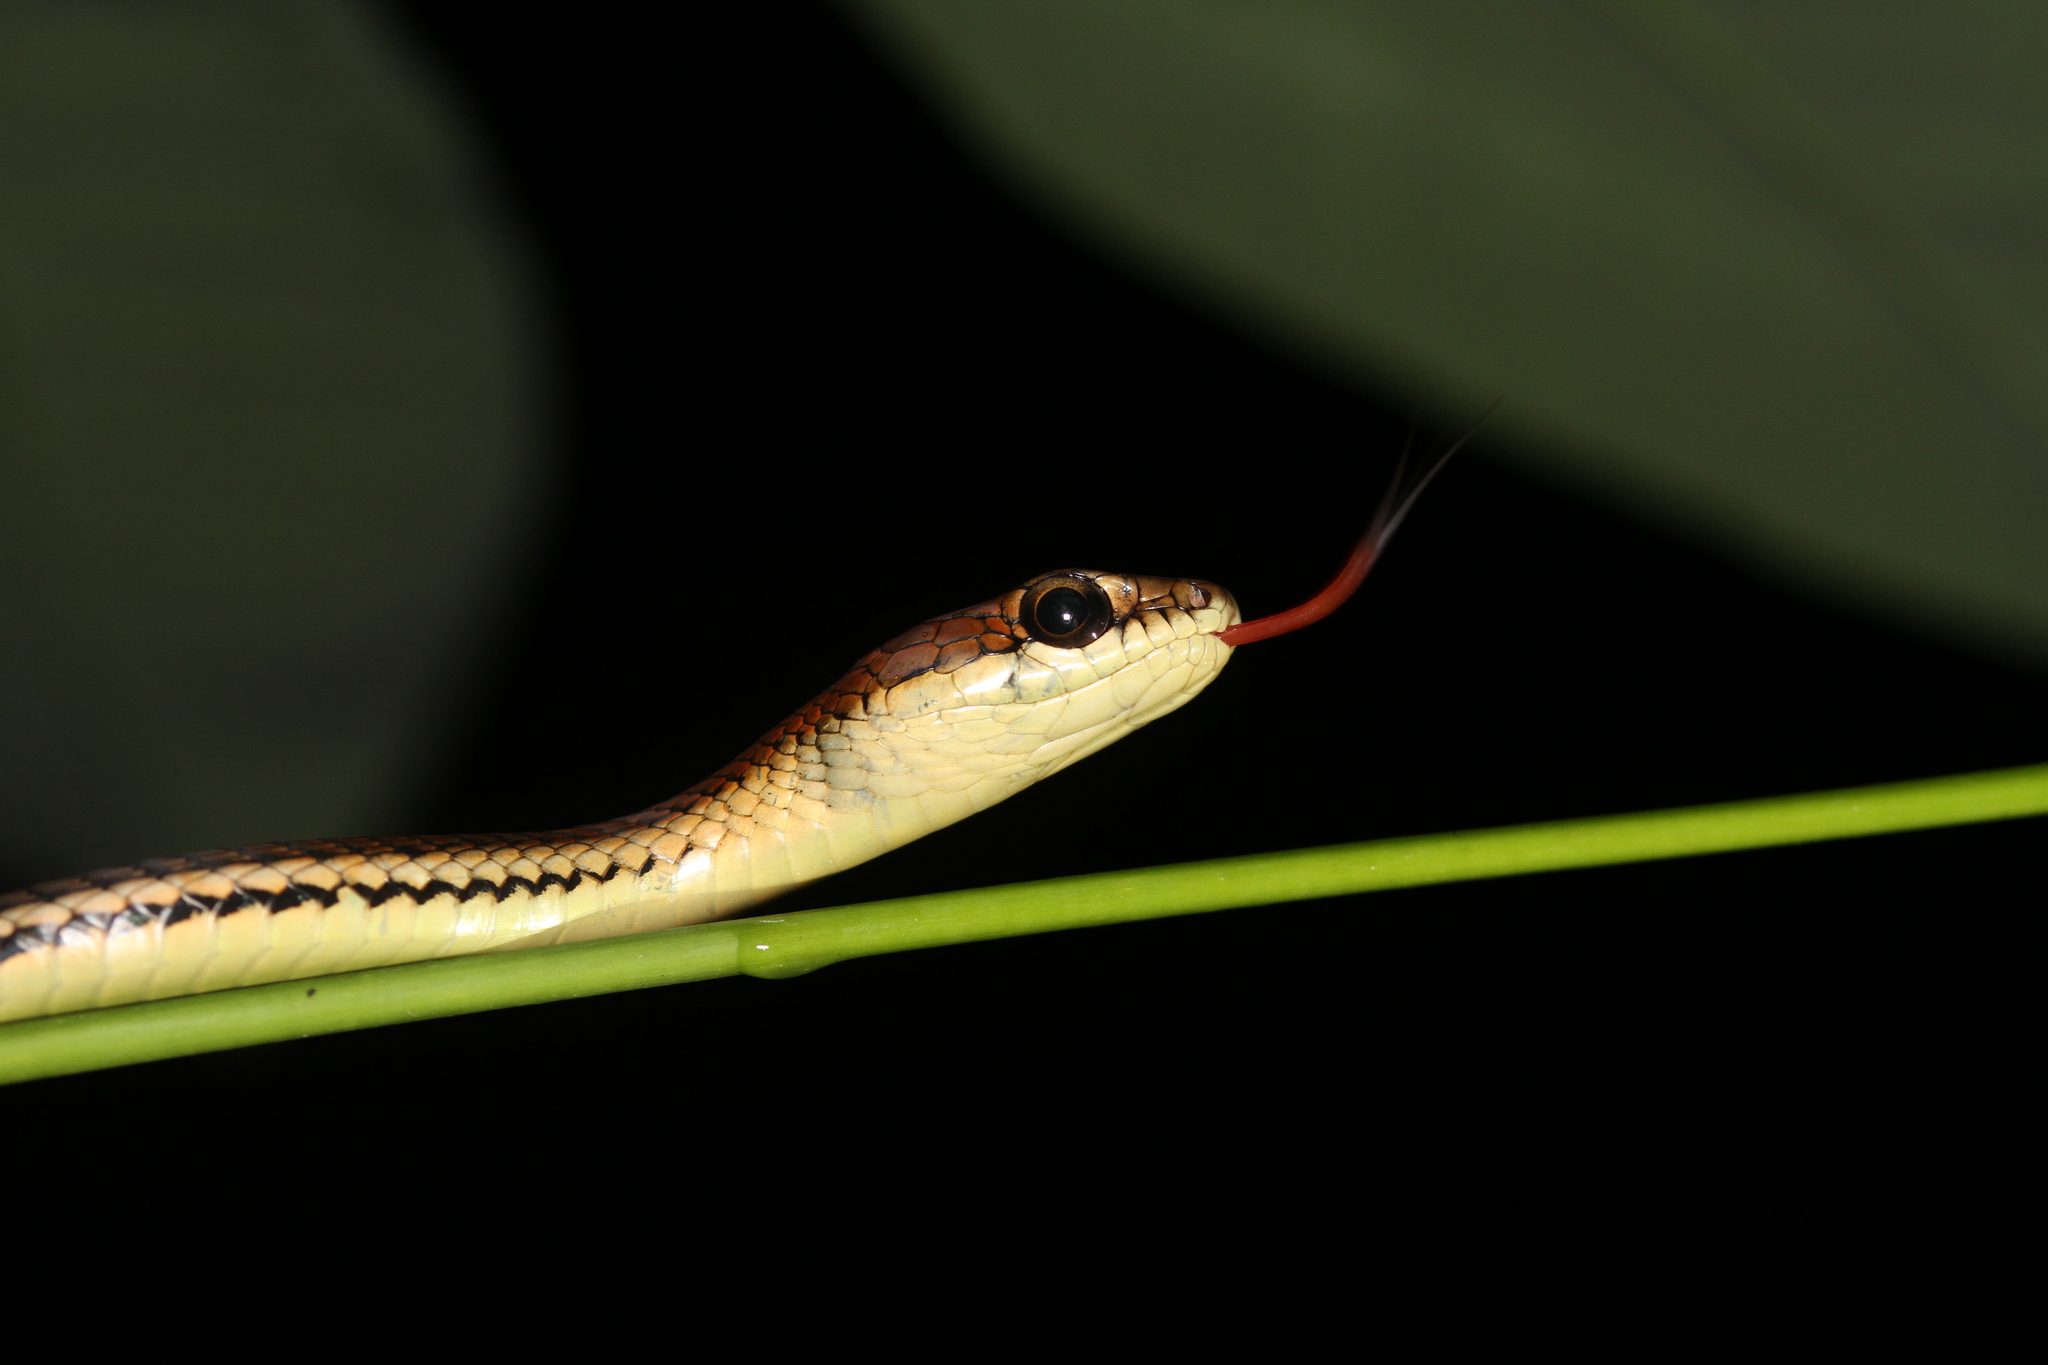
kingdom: Animalia
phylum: Chordata
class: Squamata
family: Colubridae
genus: Dendrelaphis
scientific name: Dendrelaphis caudolineatus
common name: Striped bronzeback
